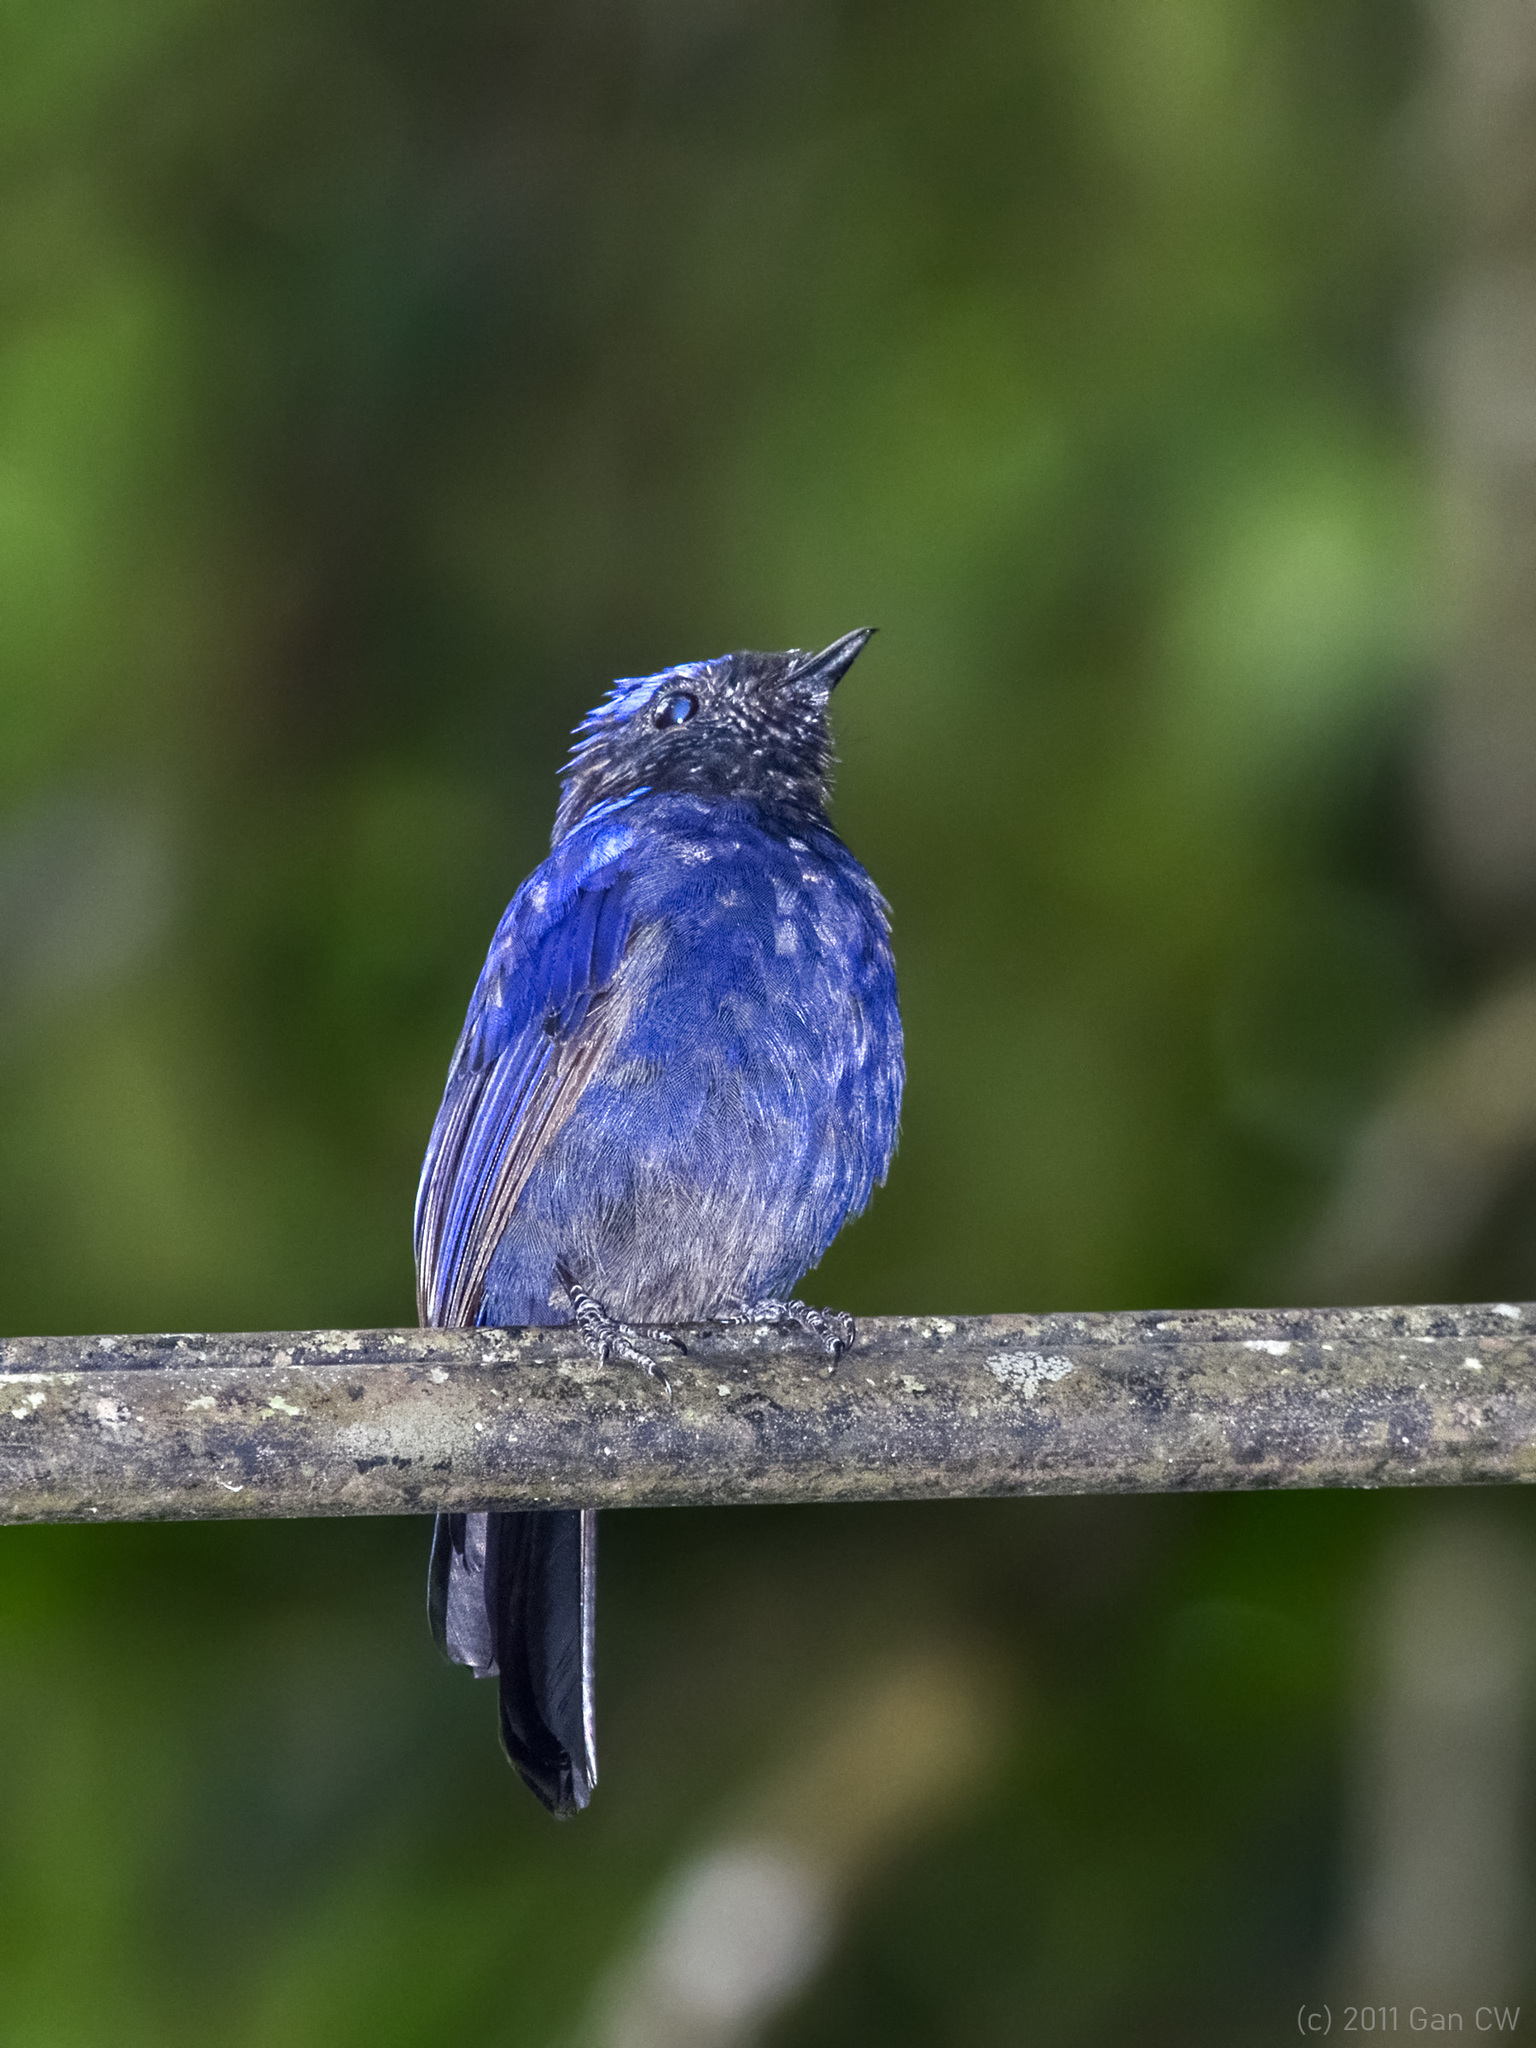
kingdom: Animalia
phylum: Chordata
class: Aves
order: Passeriformes
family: Muscicapidae
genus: Niltava
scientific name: Niltava grandis
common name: Large niltava
